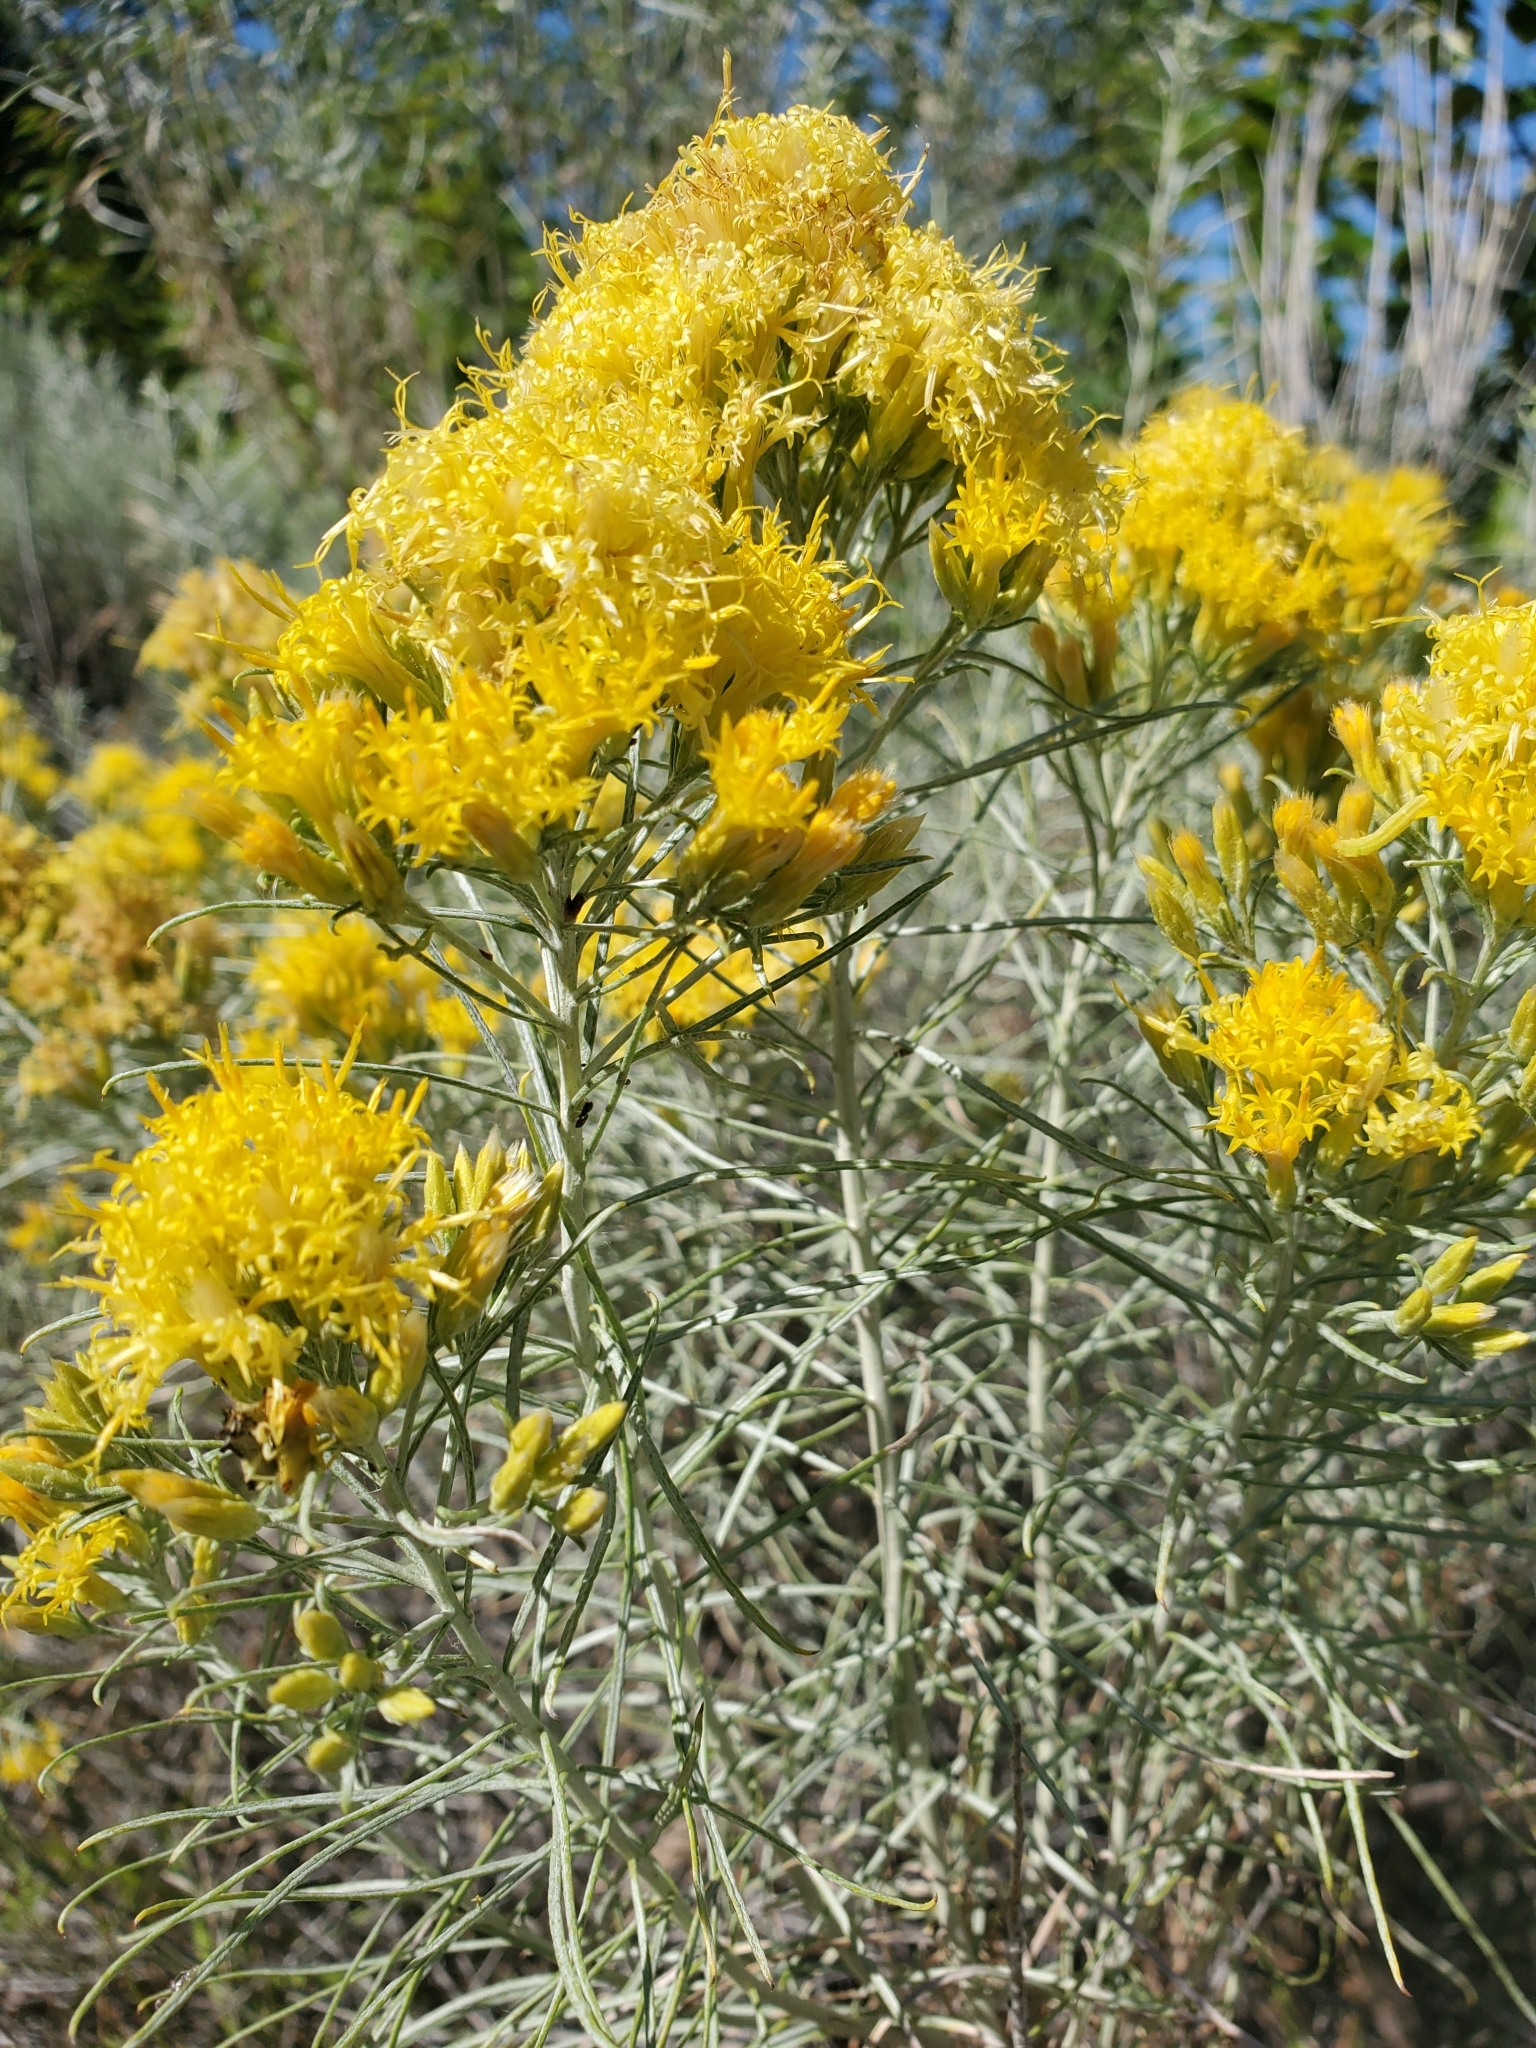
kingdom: Plantae
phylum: Tracheophyta
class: Magnoliopsida
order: Asterales
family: Asteraceae
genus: Ericameria
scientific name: Ericameria nauseosa
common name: Rubber rabbitbrush
